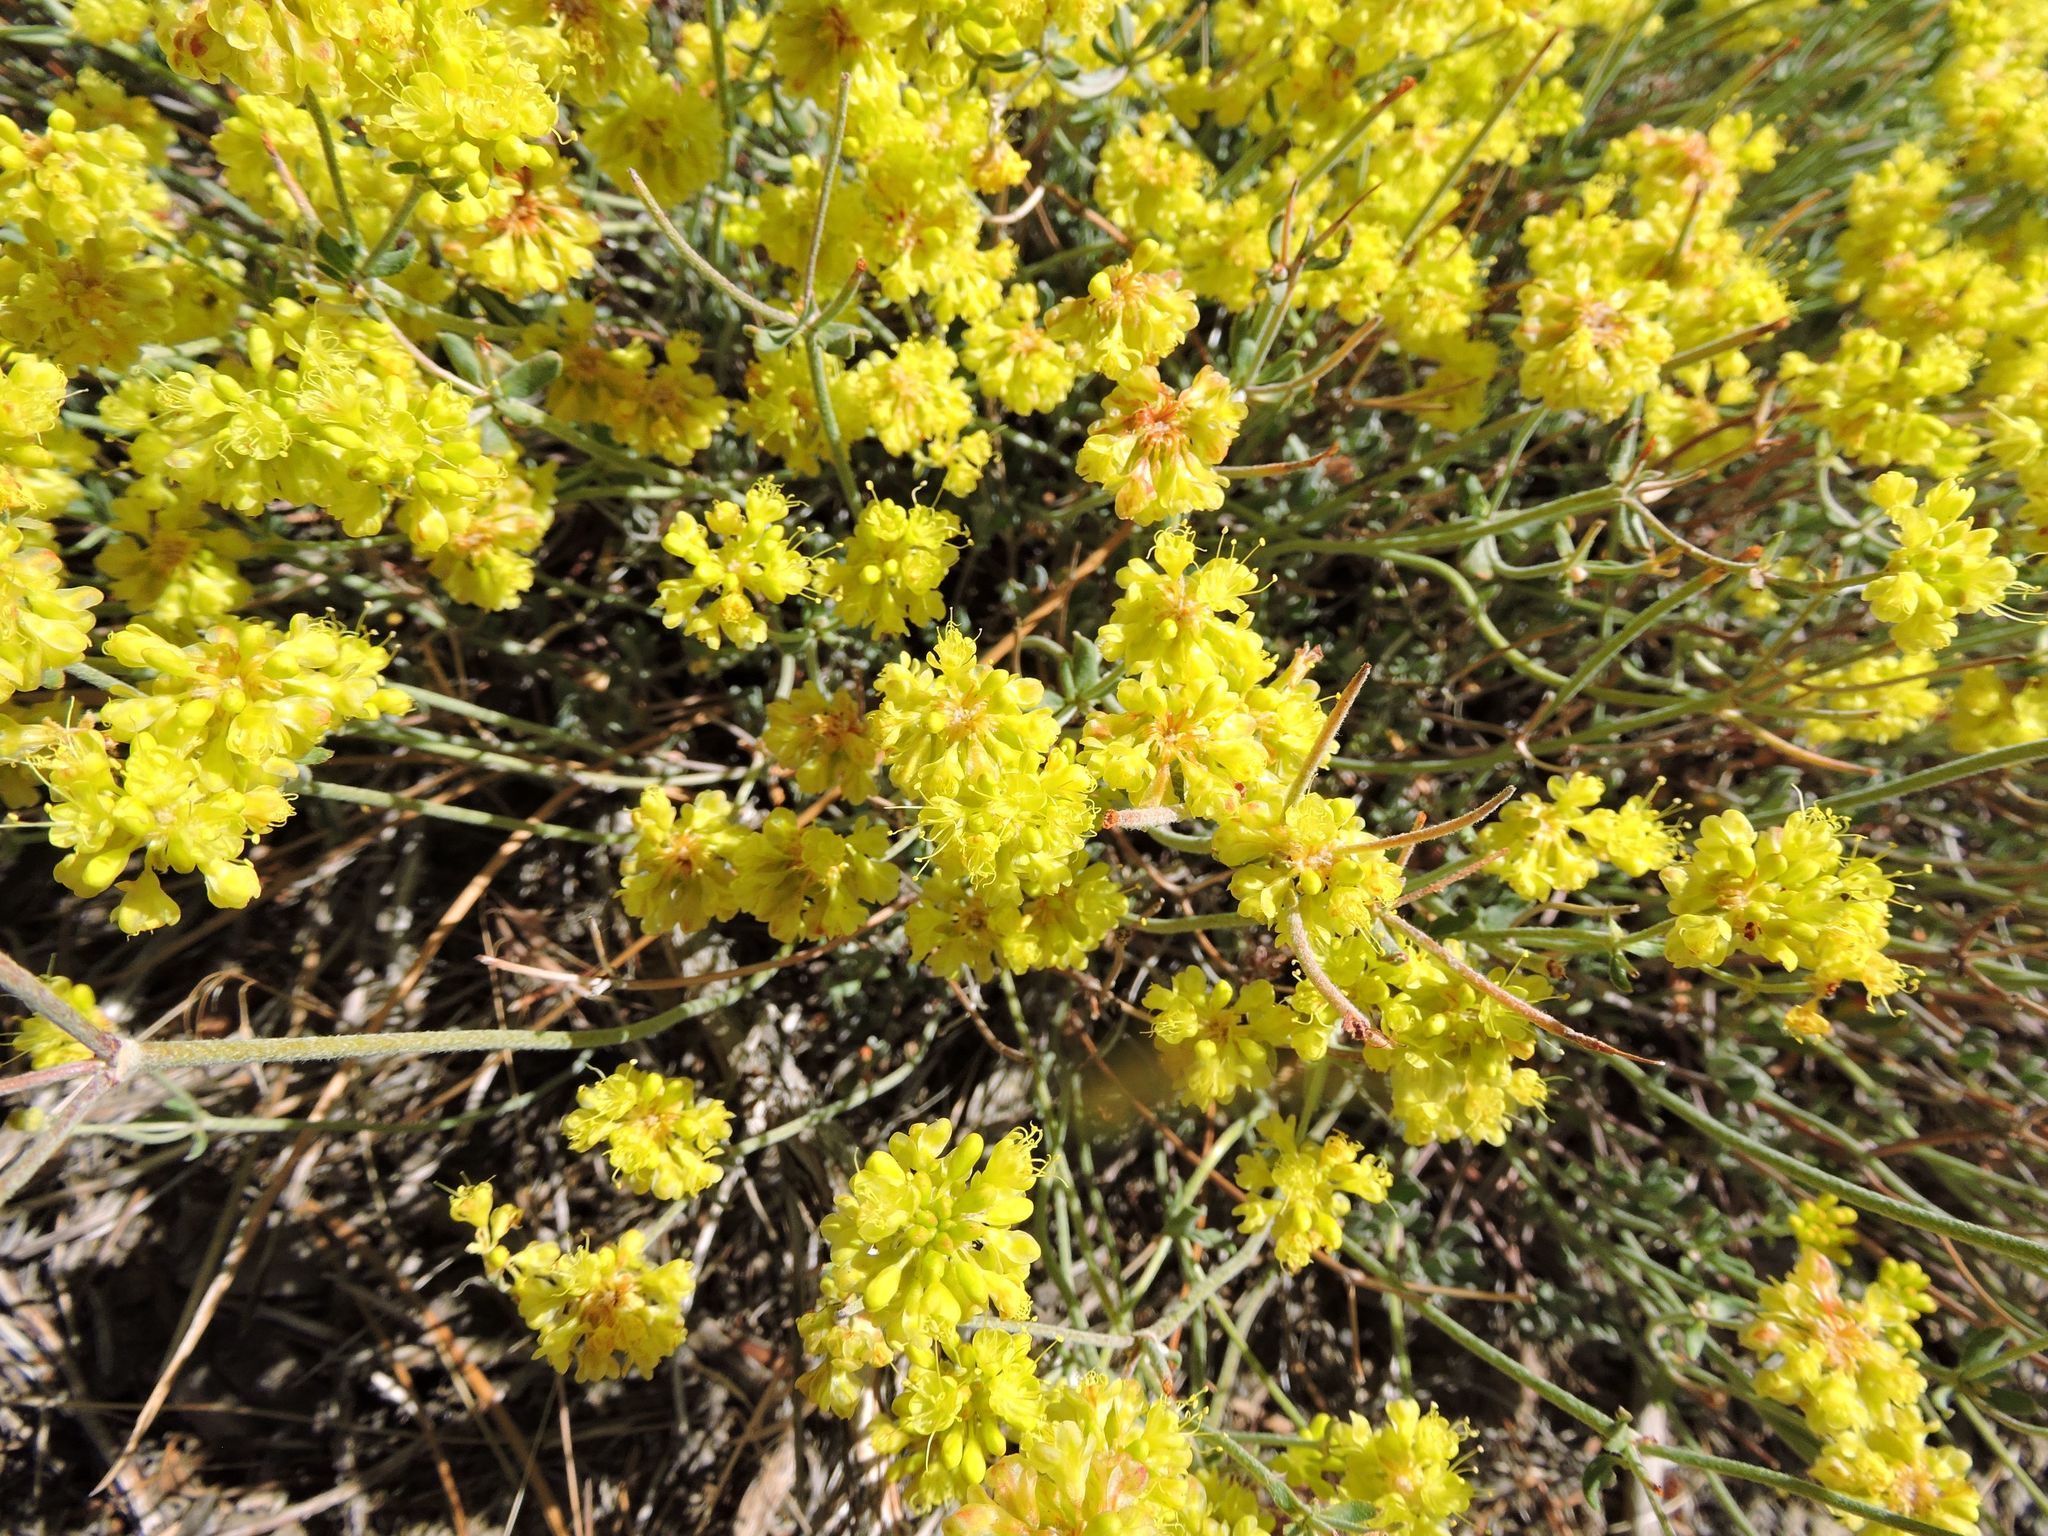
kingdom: Plantae
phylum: Tracheophyta
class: Magnoliopsida
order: Caryophyllales
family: Polygonaceae
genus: Eriogonum
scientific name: Eriogonum umbellatum
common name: Sulfur-buckwheat
